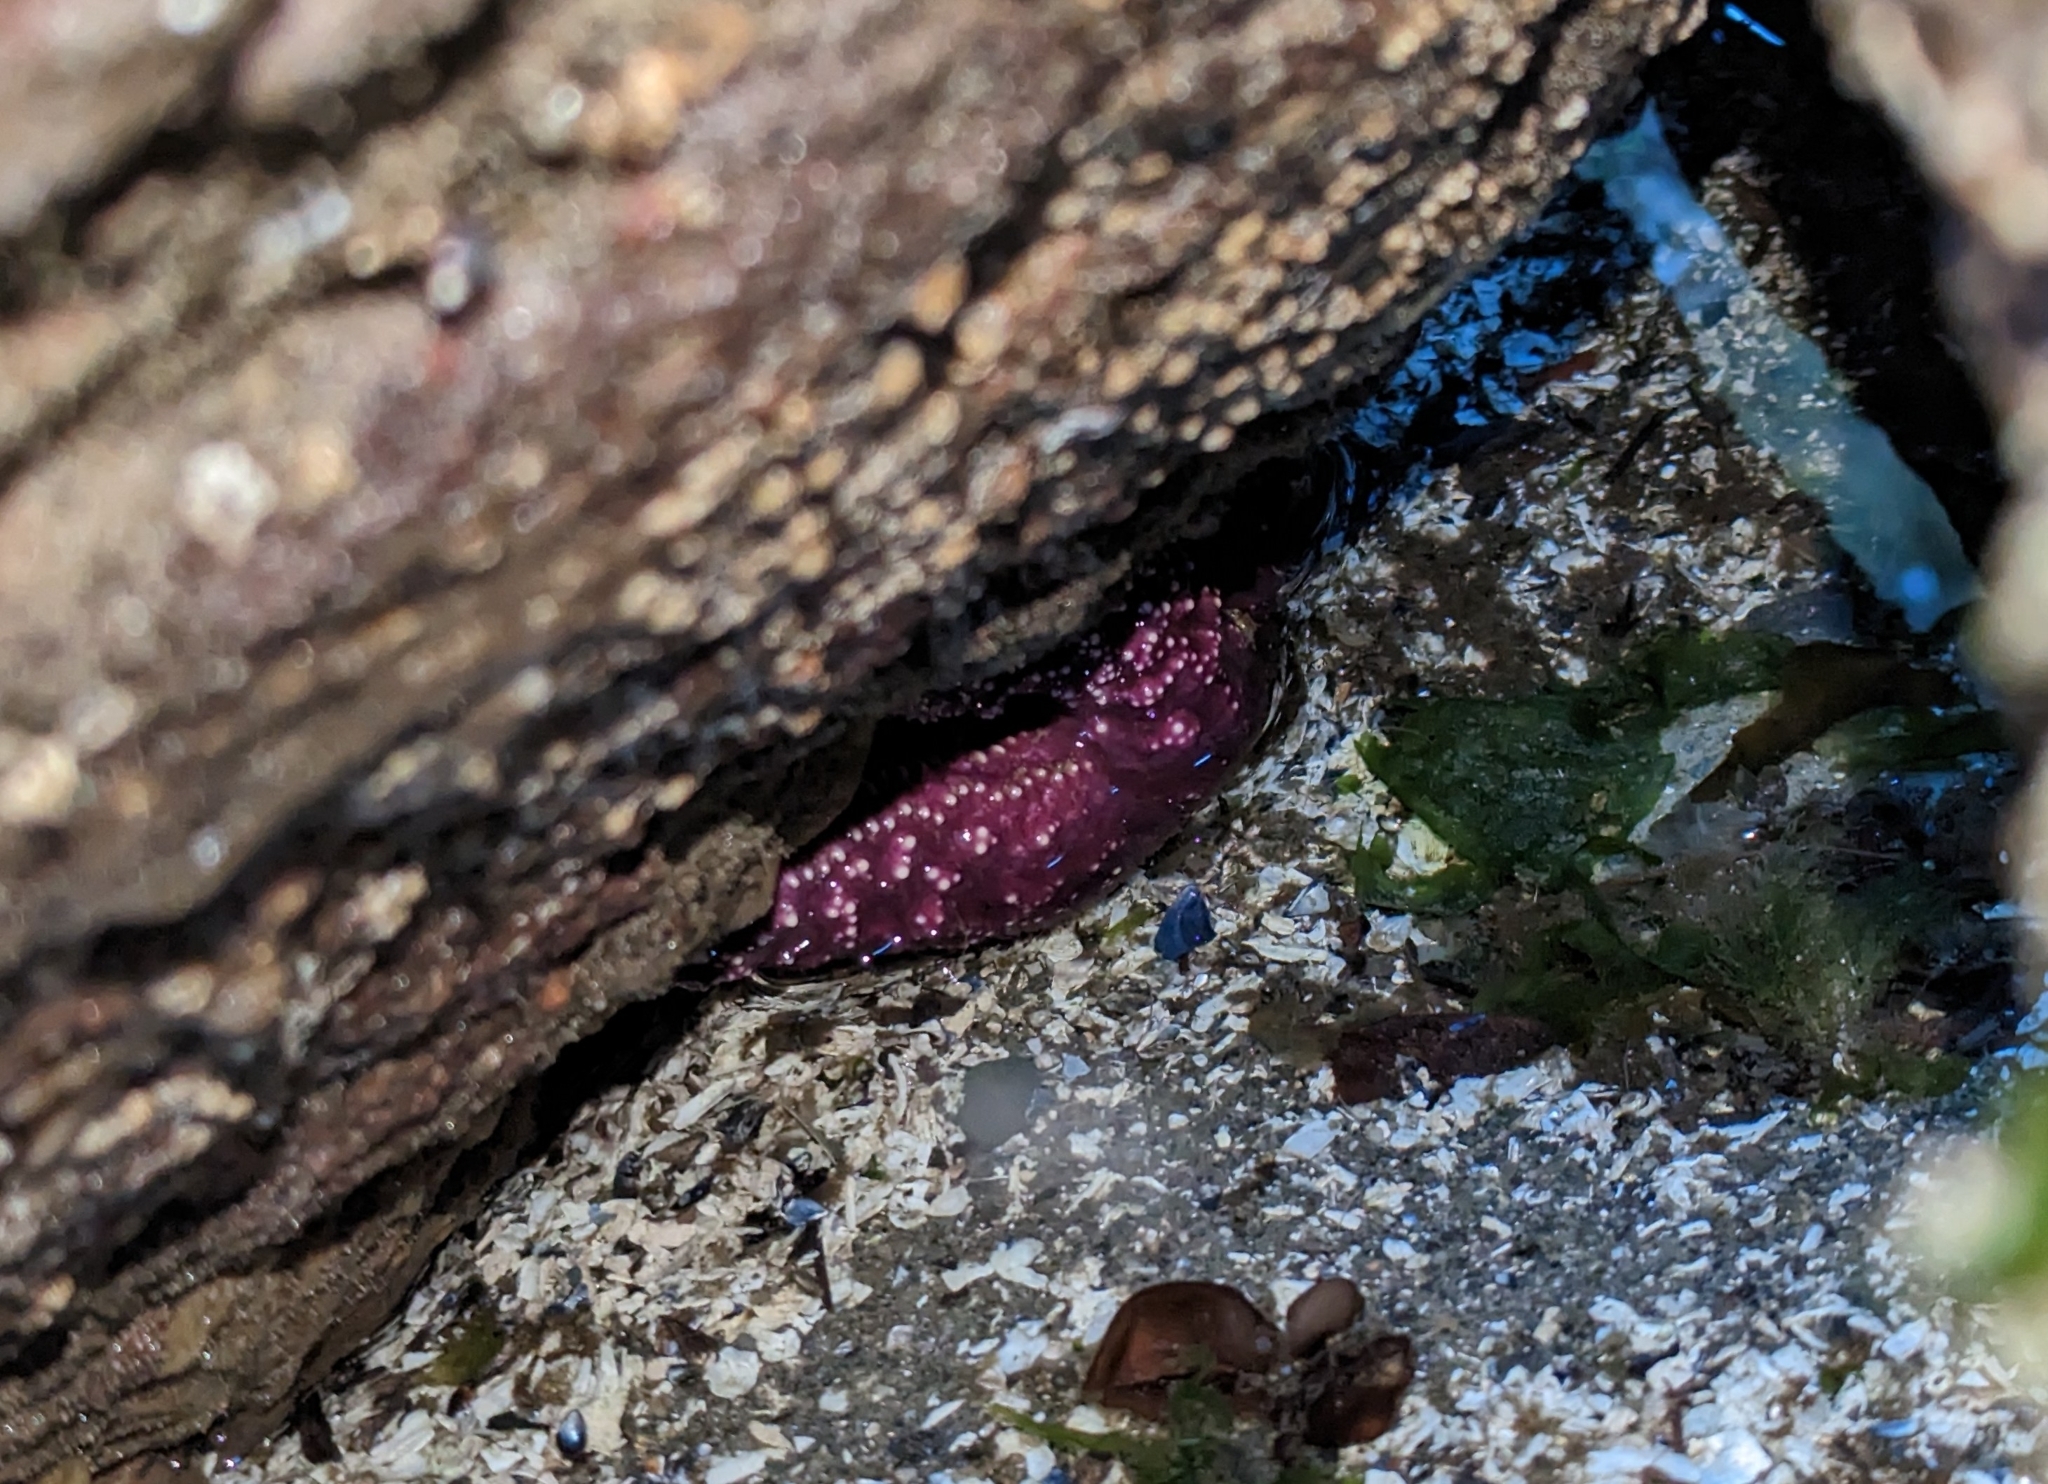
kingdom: Animalia
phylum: Echinodermata
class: Asteroidea
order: Forcipulatida
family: Asteriidae
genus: Pisaster
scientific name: Pisaster ochraceus
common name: Ochre stars
